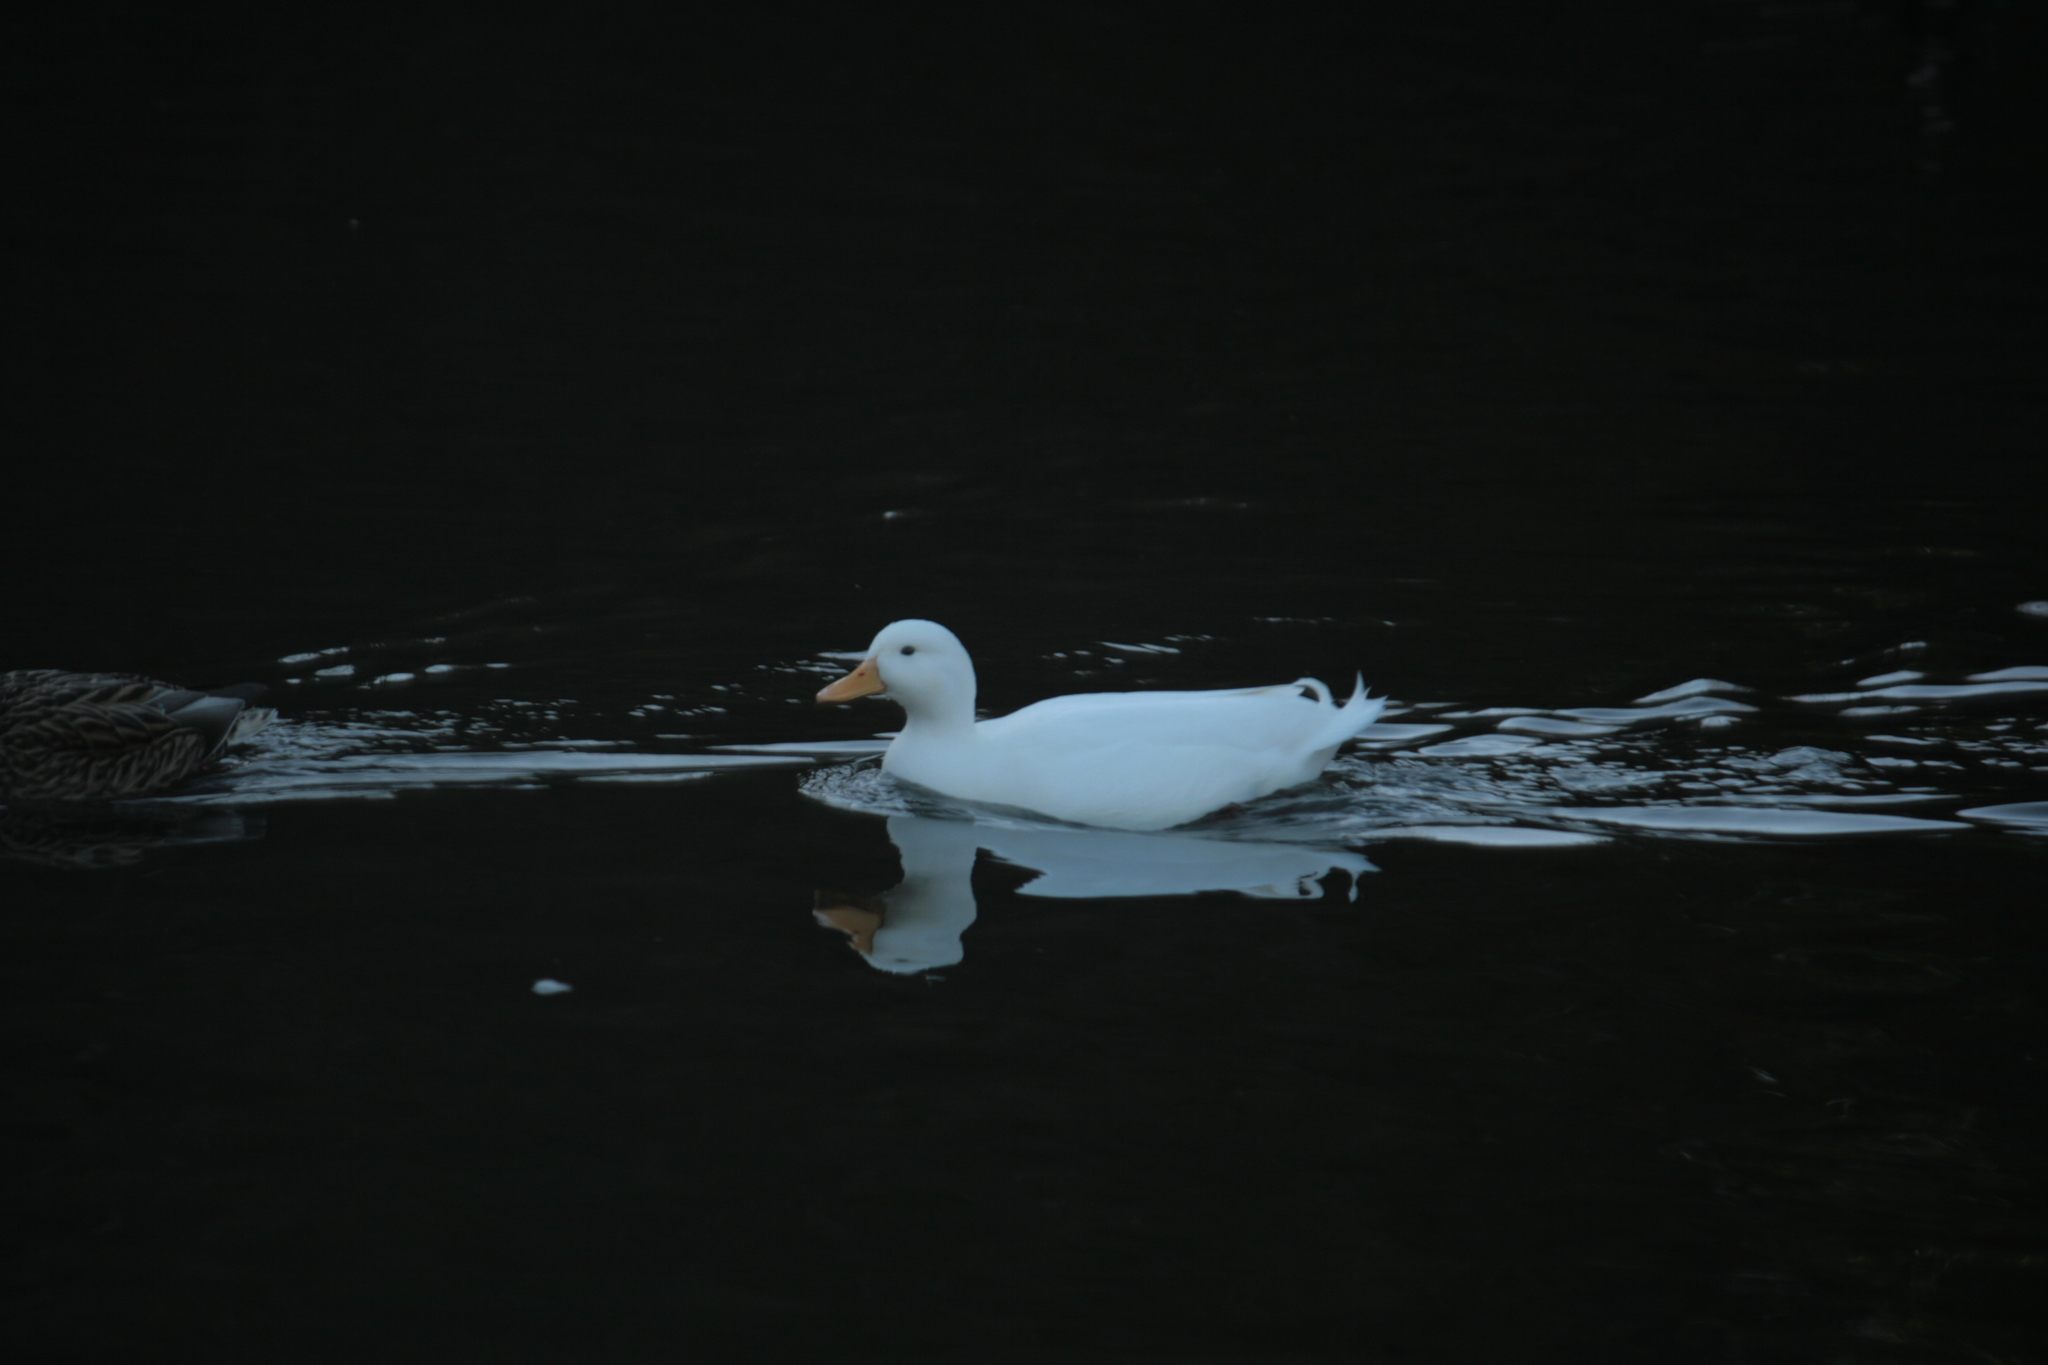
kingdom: Animalia
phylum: Chordata
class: Aves
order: Anseriformes
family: Anatidae
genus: Anas
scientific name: Anas platyrhynchos
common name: Mallard
